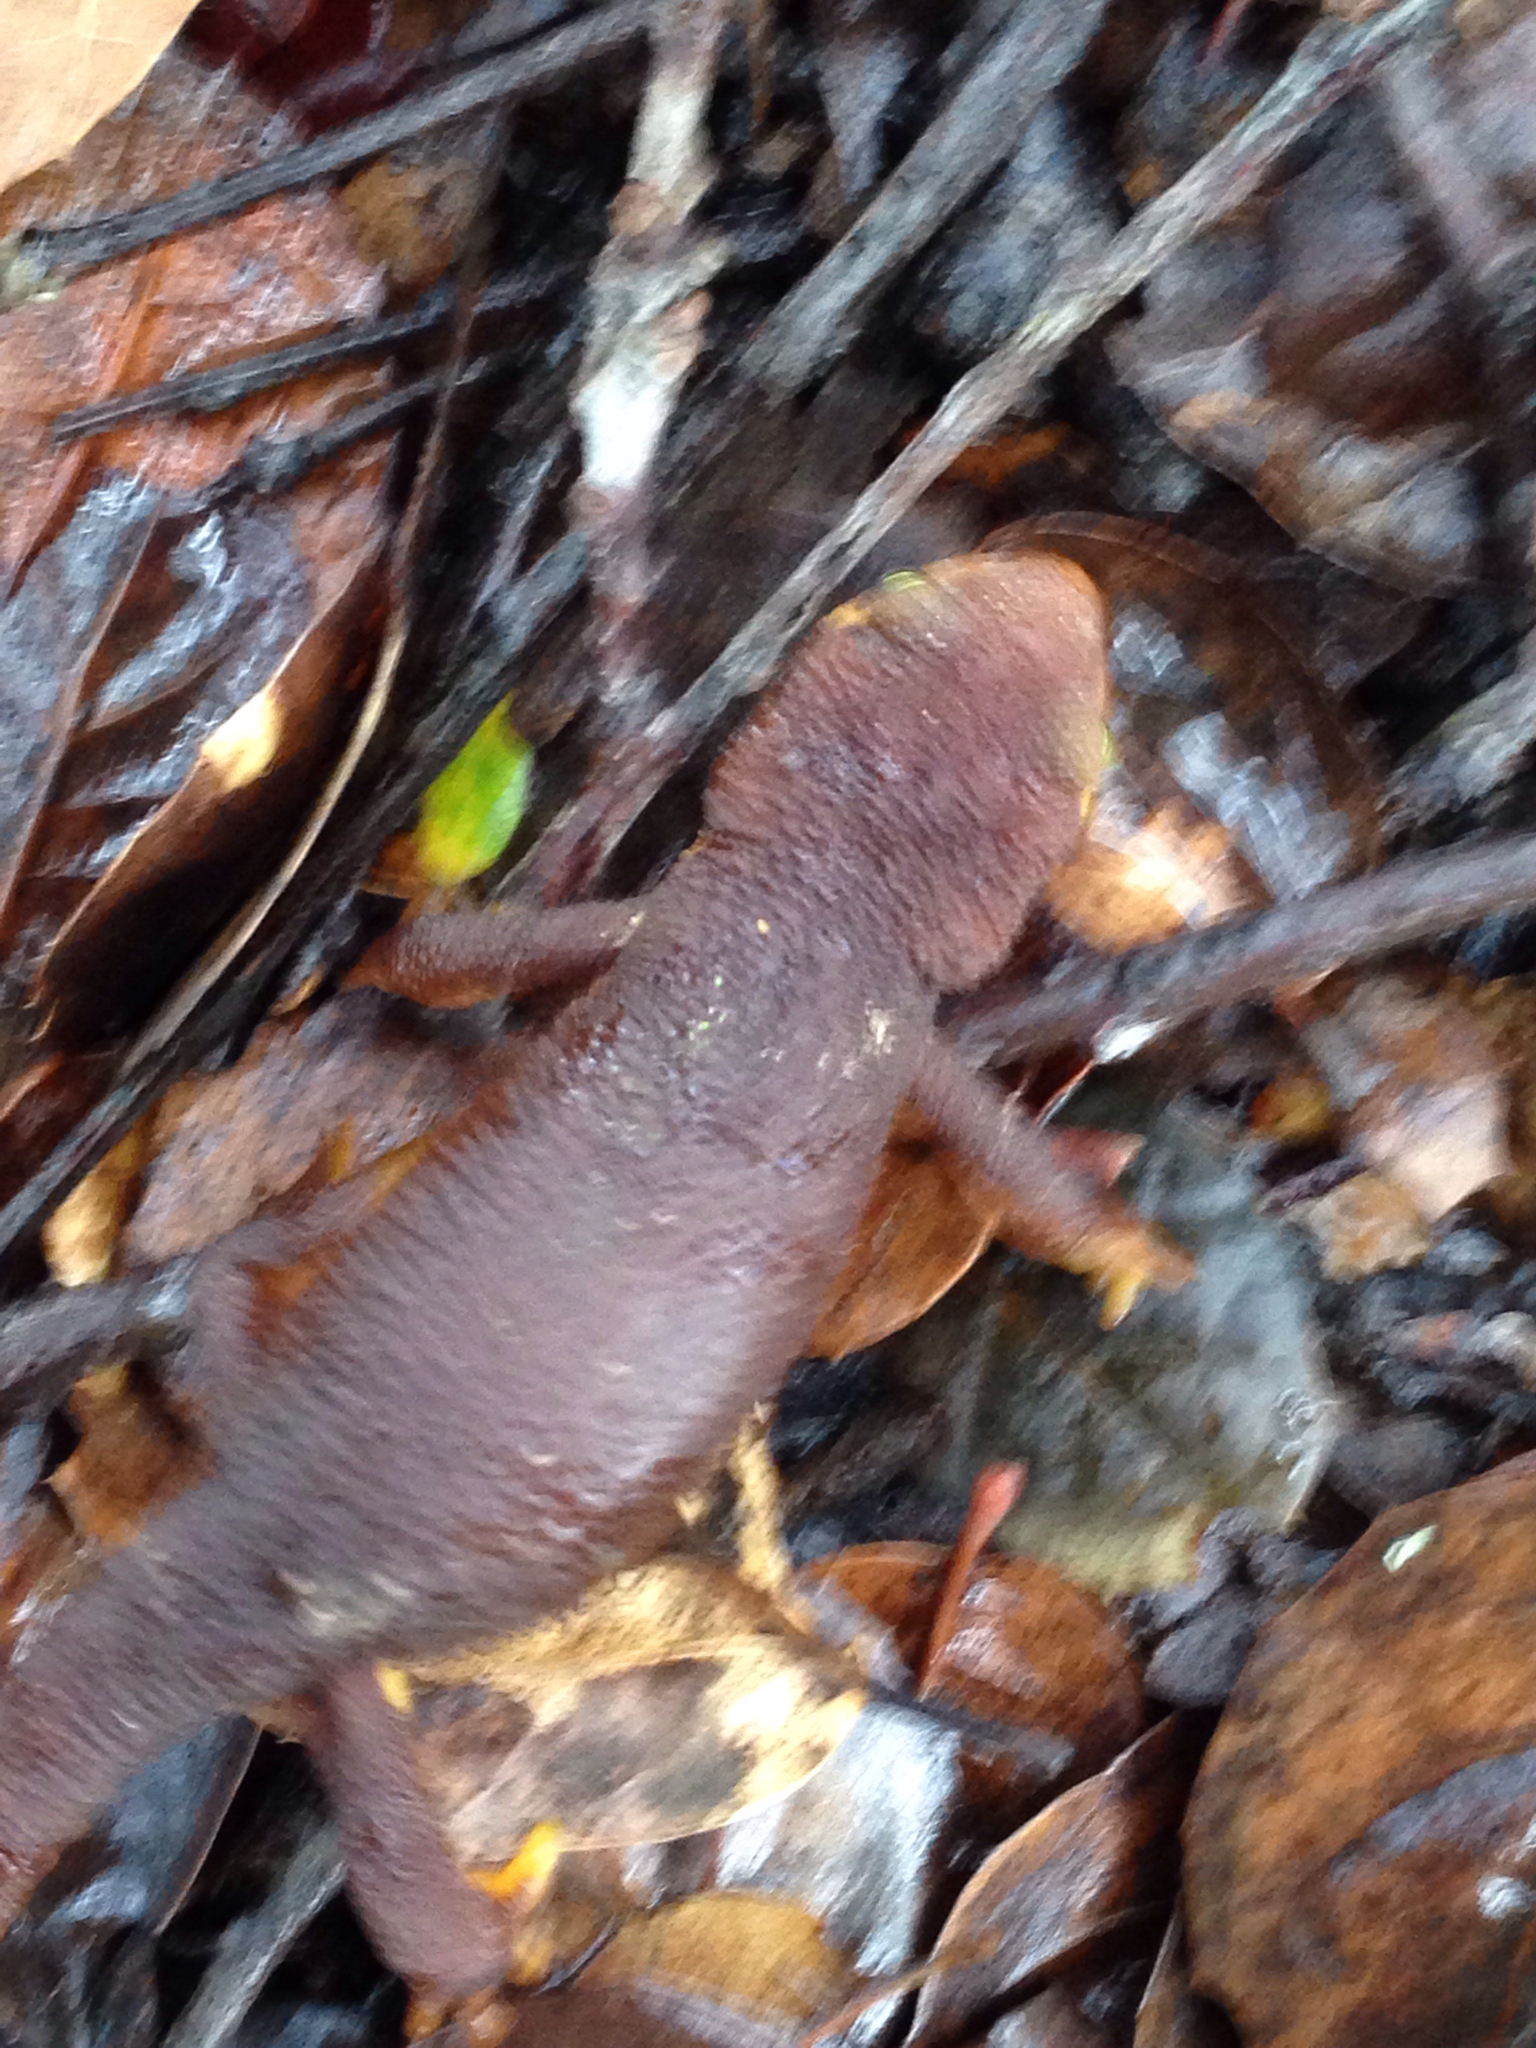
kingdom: Animalia
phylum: Chordata
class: Amphibia
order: Caudata
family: Salamandridae
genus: Taricha
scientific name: Taricha torosa
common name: California newt
